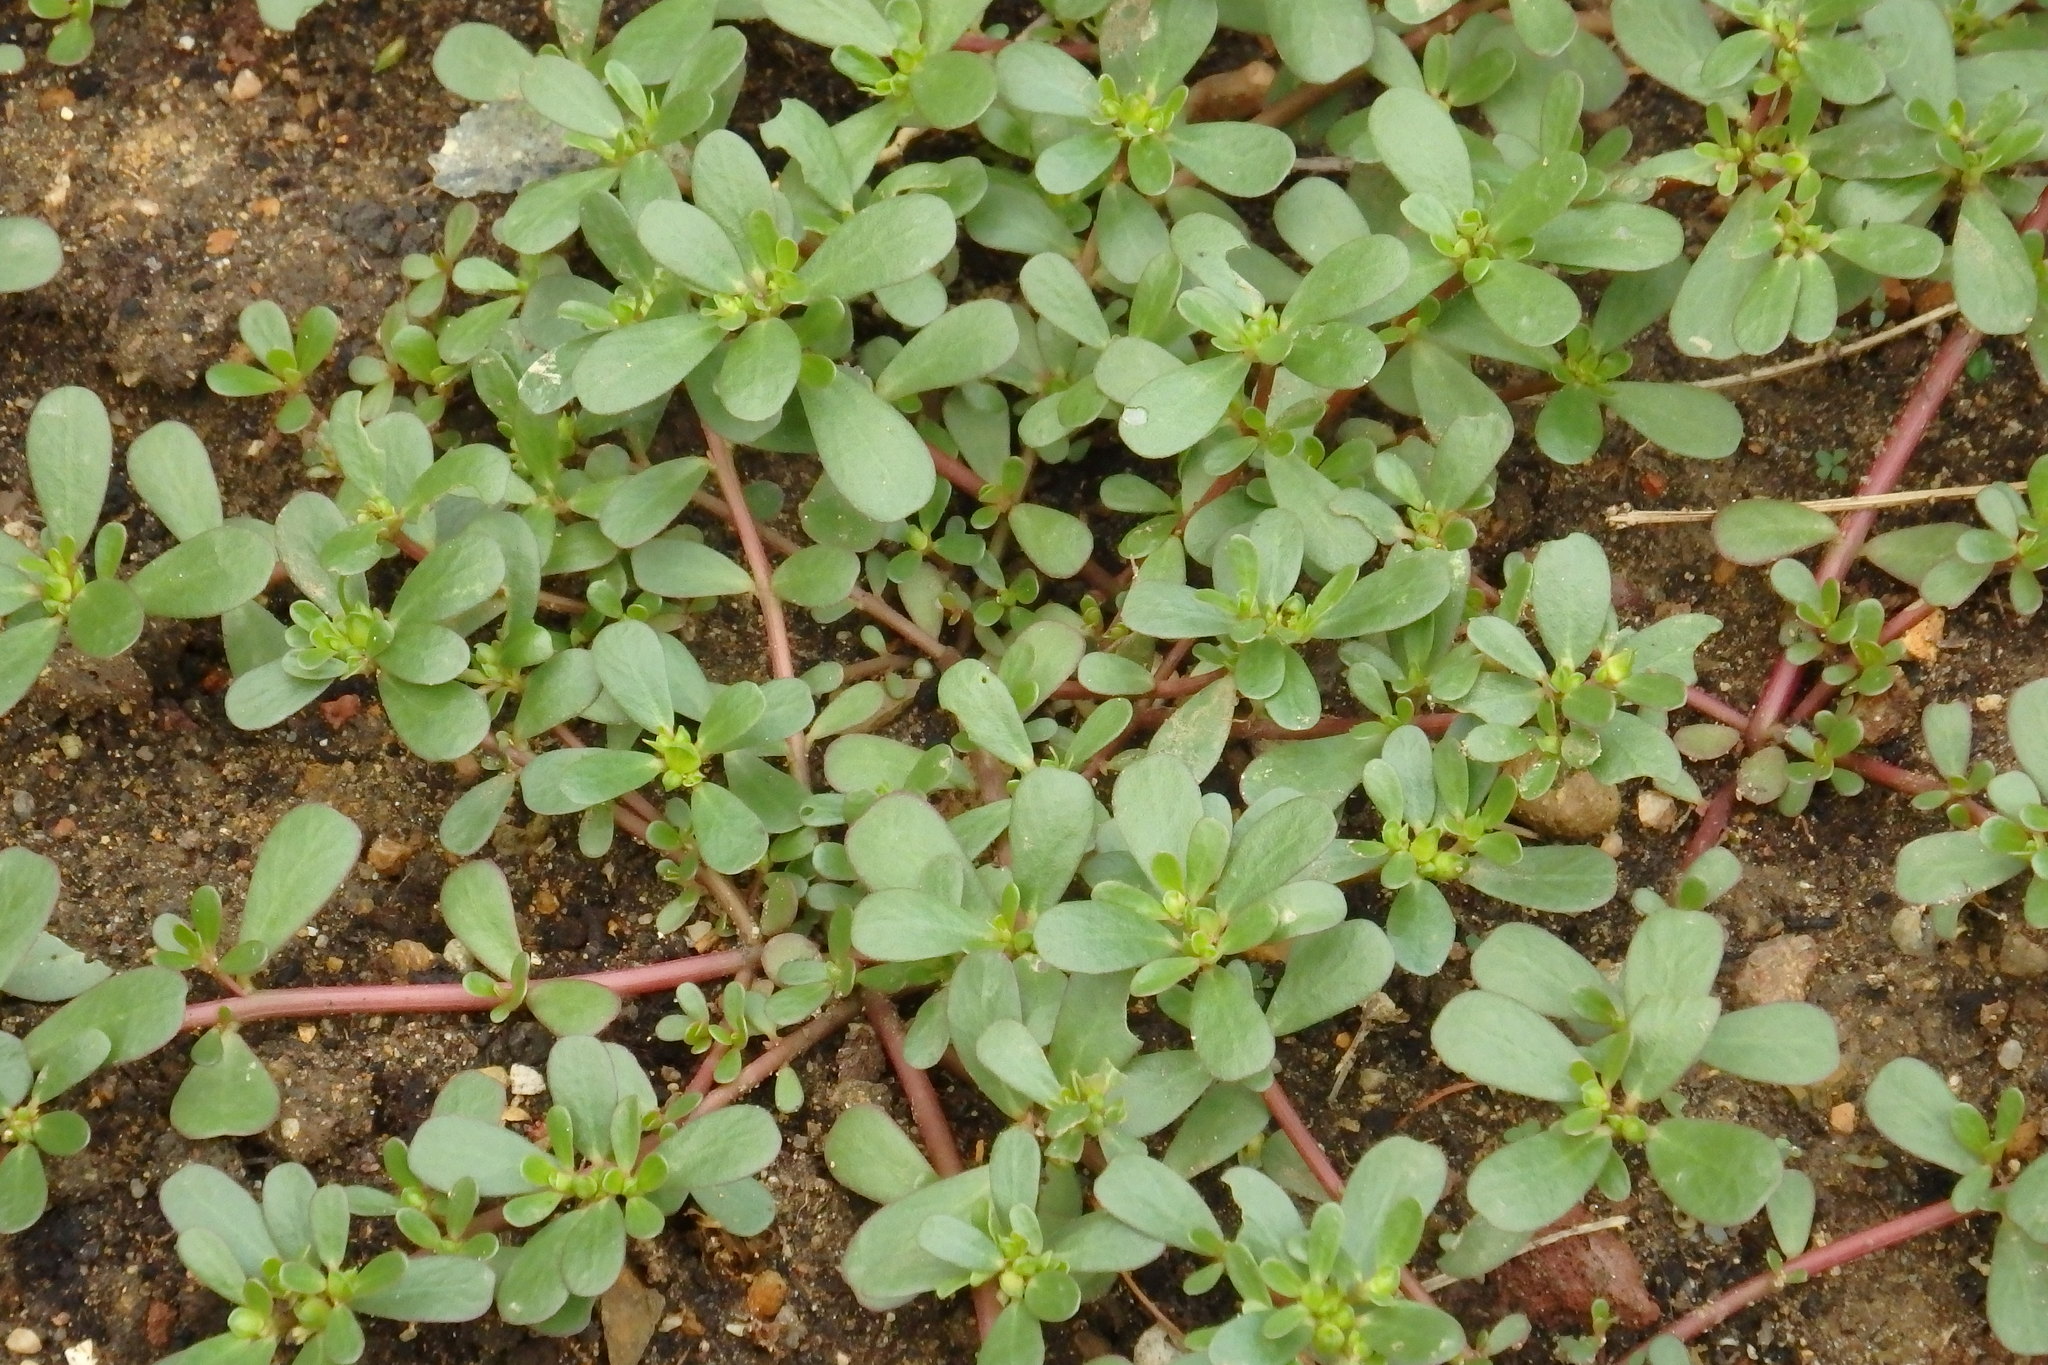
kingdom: Plantae
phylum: Tracheophyta
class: Magnoliopsida
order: Caryophyllales
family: Portulacaceae
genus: Portulaca
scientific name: Portulaca oleracea
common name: Common purslane
